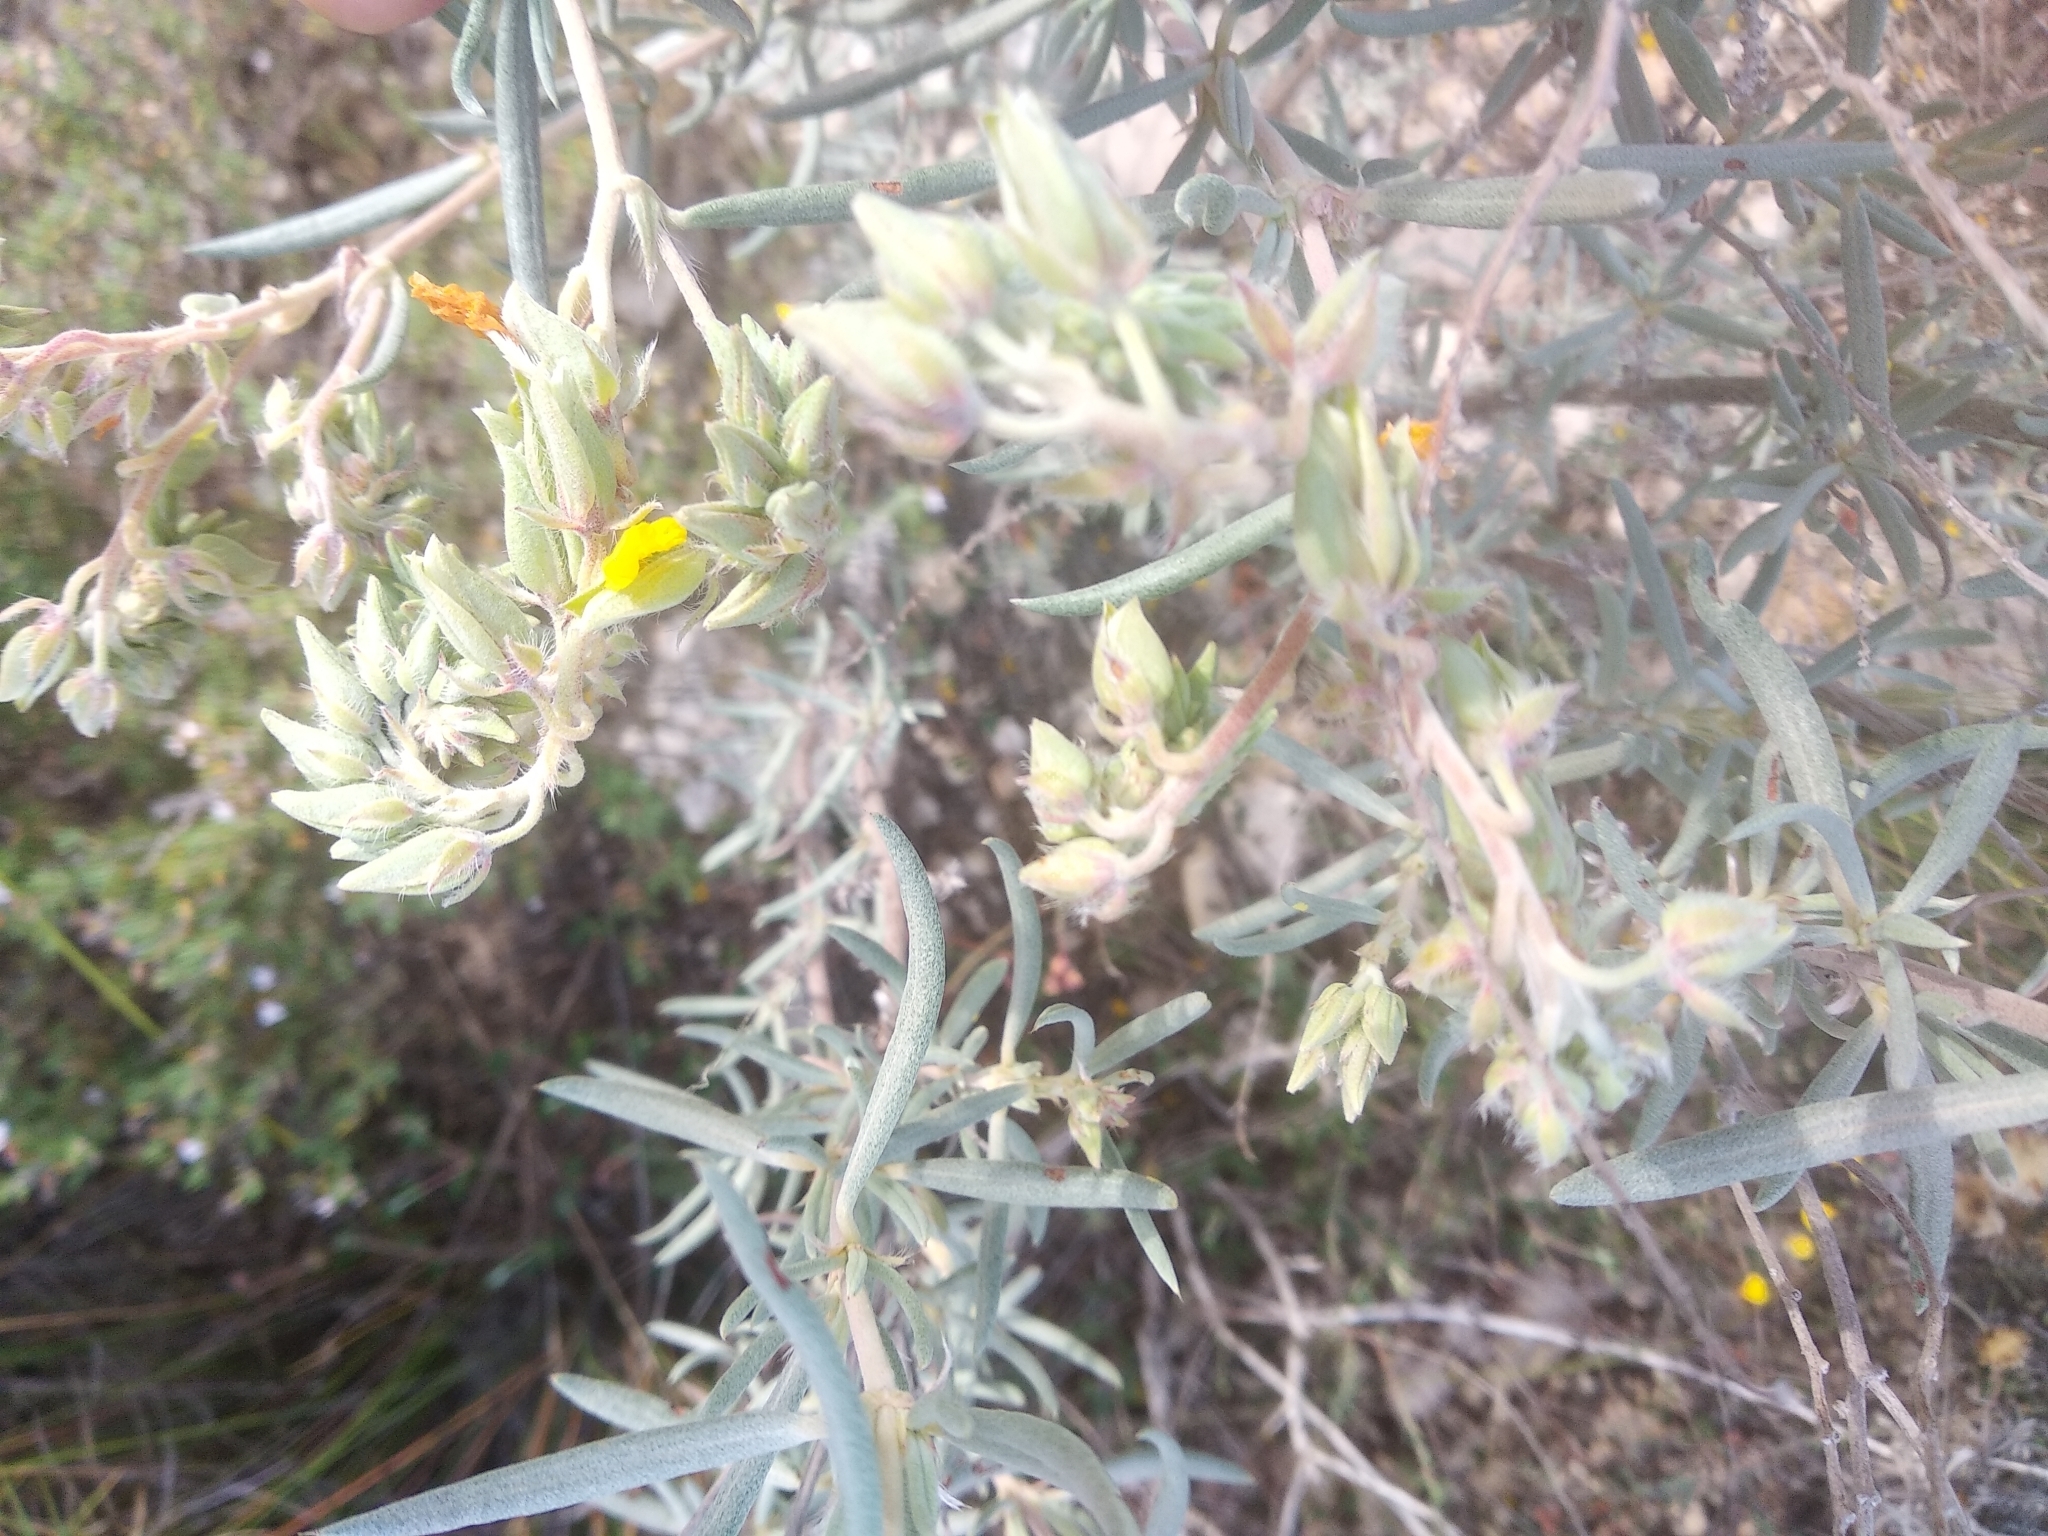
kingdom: Plantae
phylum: Tracheophyta
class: Magnoliopsida
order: Malvales
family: Cistaceae
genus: Helianthemum
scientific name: Helianthemum syriacum
